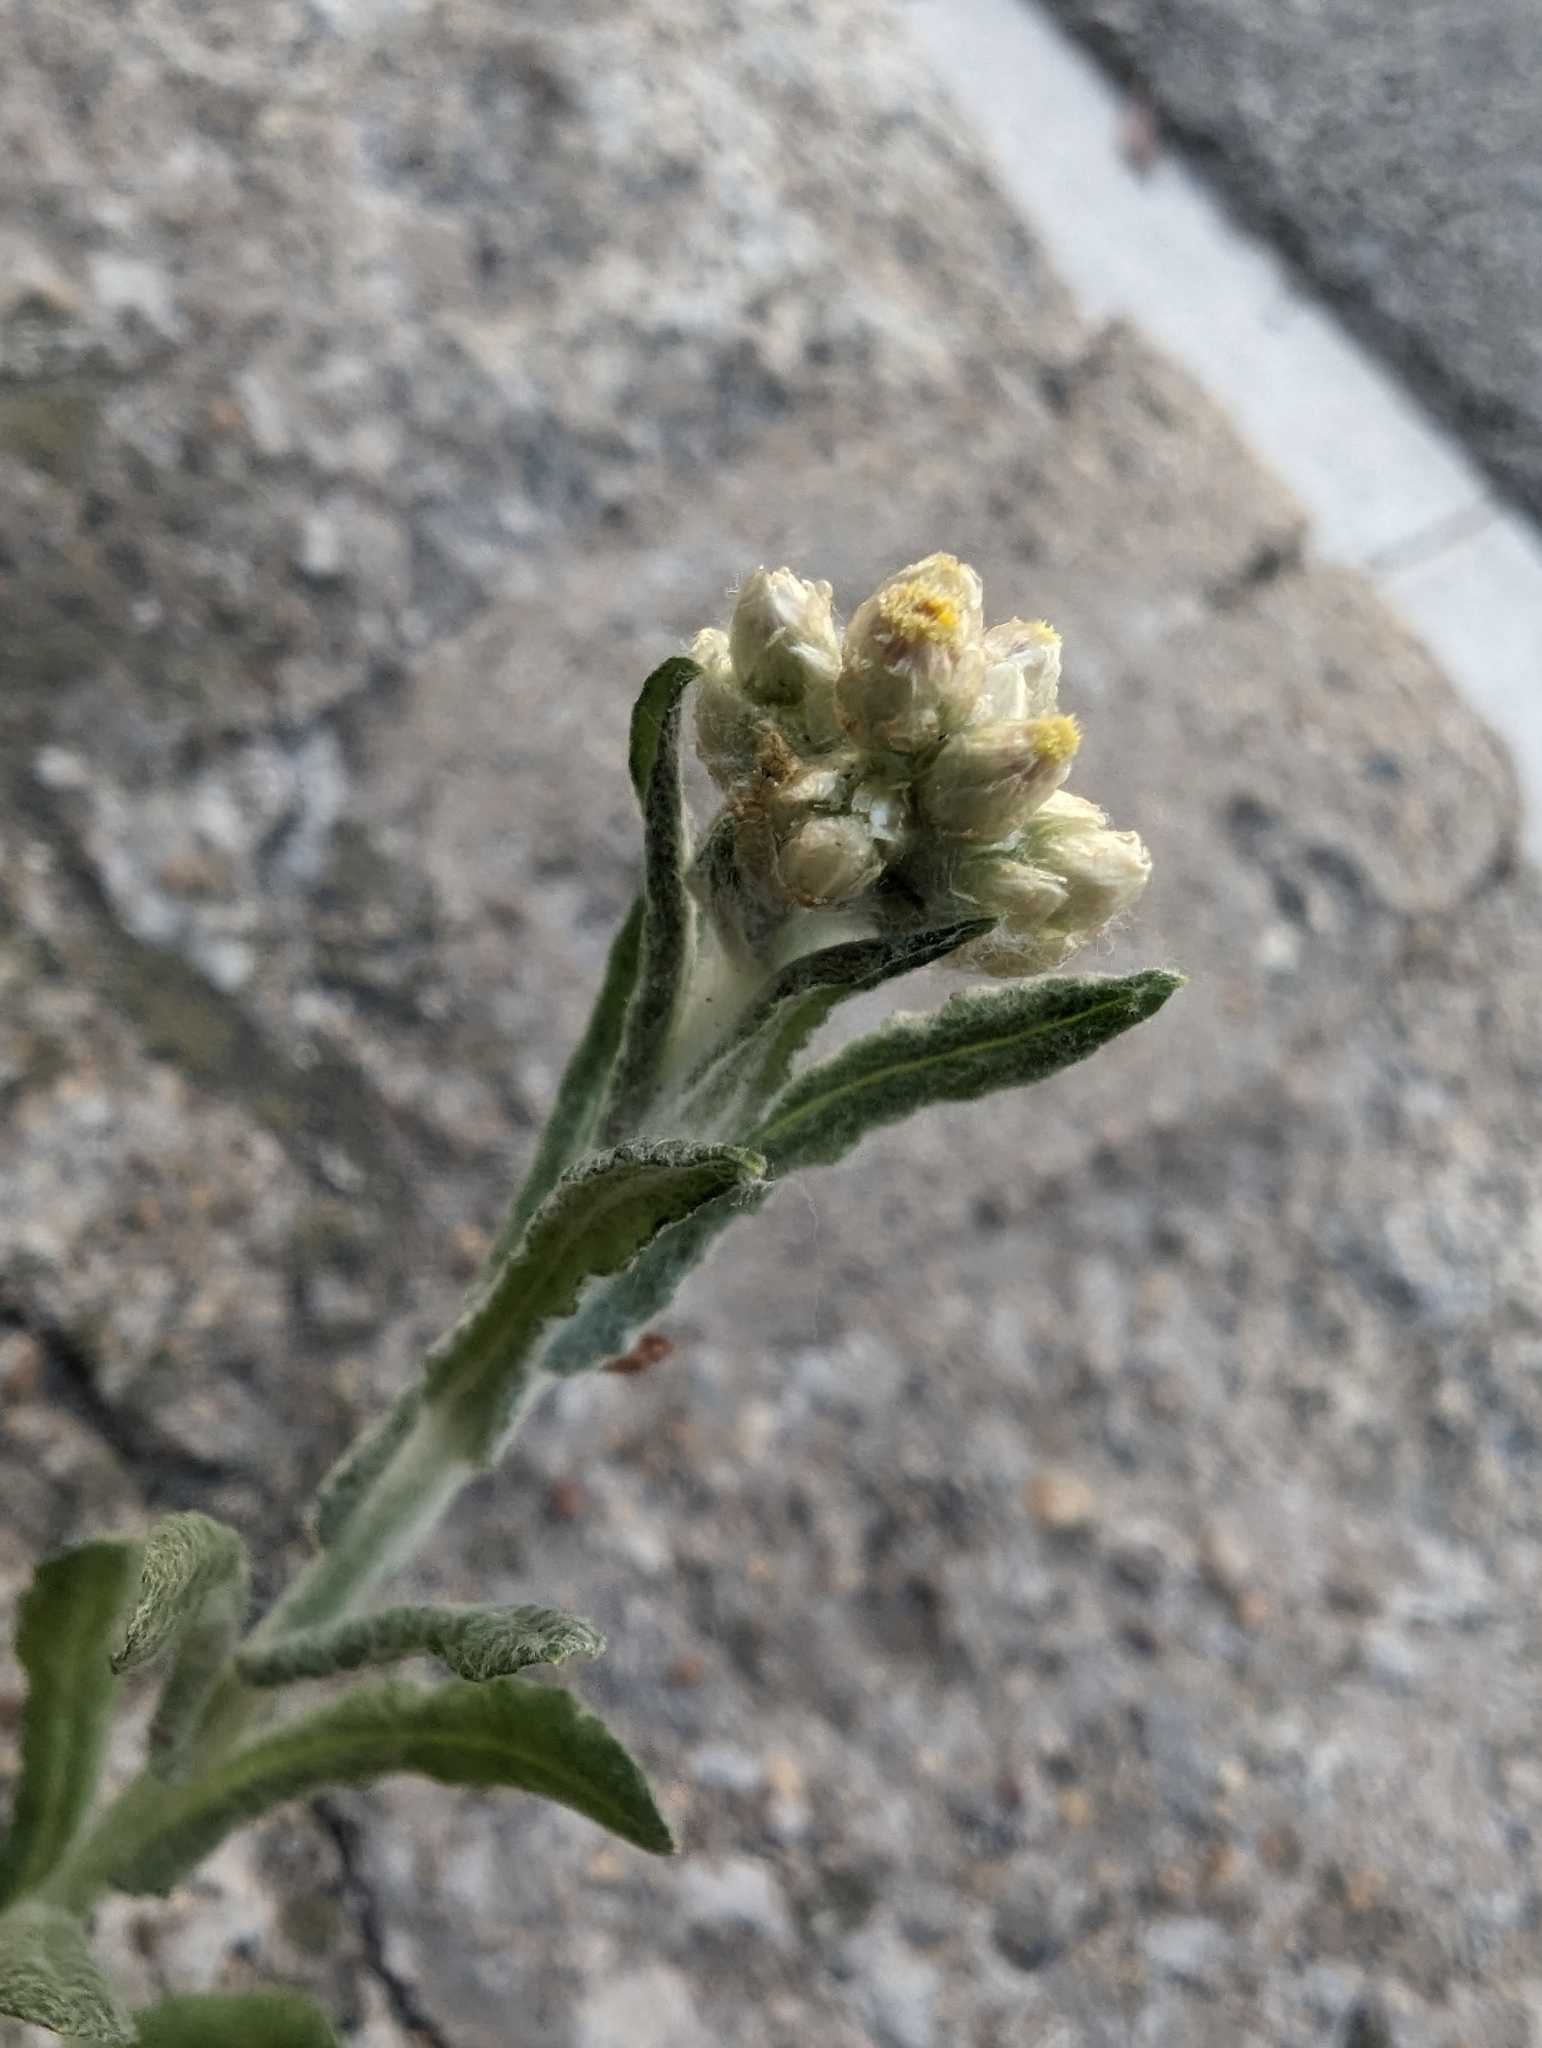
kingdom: Plantae
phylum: Tracheophyta
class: Magnoliopsida
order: Asterales
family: Asteraceae
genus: Helichrysum
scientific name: Helichrysum luteoalbum
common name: Daisy
